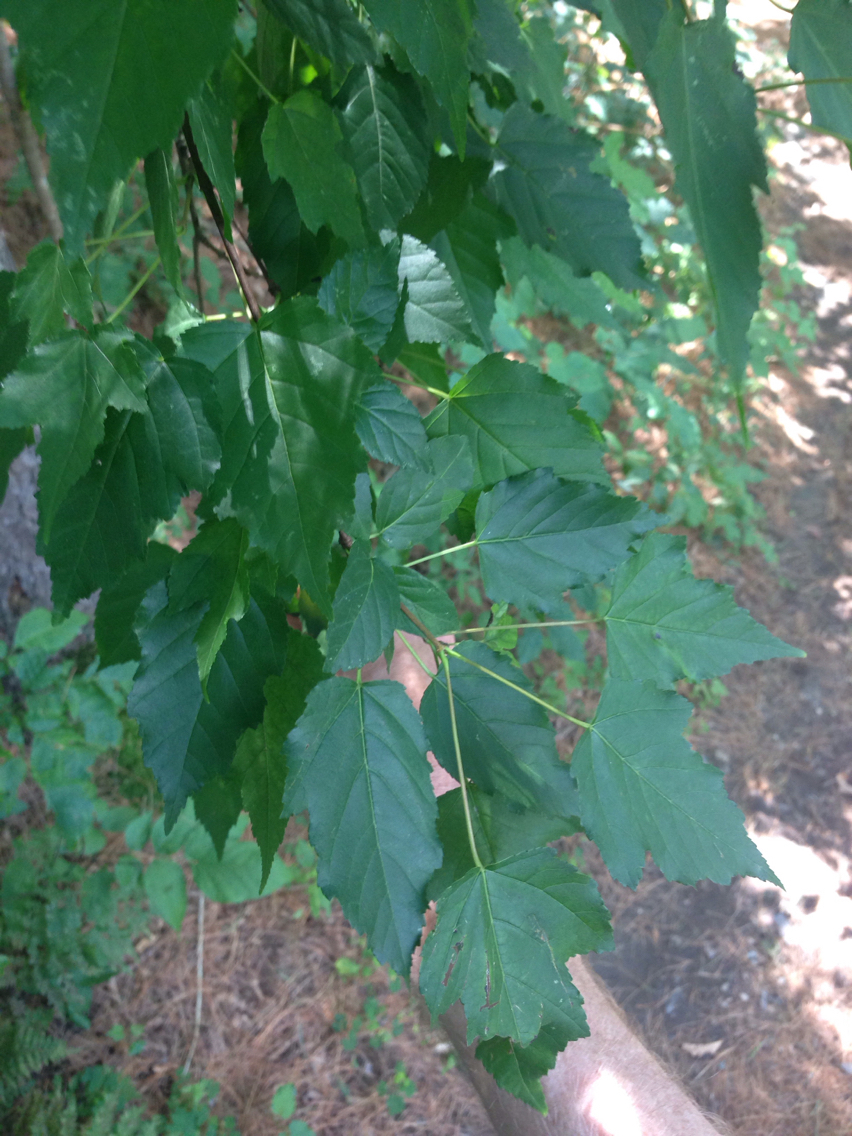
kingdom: Plantae
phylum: Tracheophyta
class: Magnoliopsida
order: Sapindales
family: Sapindaceae
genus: Acer
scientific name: Acer tataricum
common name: Tartar maple
